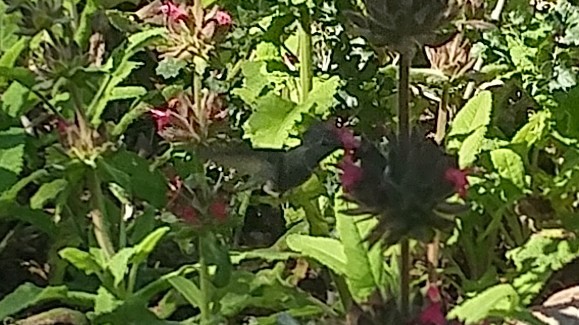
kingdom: Animalia
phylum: Chordata
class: Aves
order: Apodiformes
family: Trochilidae
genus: Calypte
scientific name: Calypte anna
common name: Anna's hummingbird
